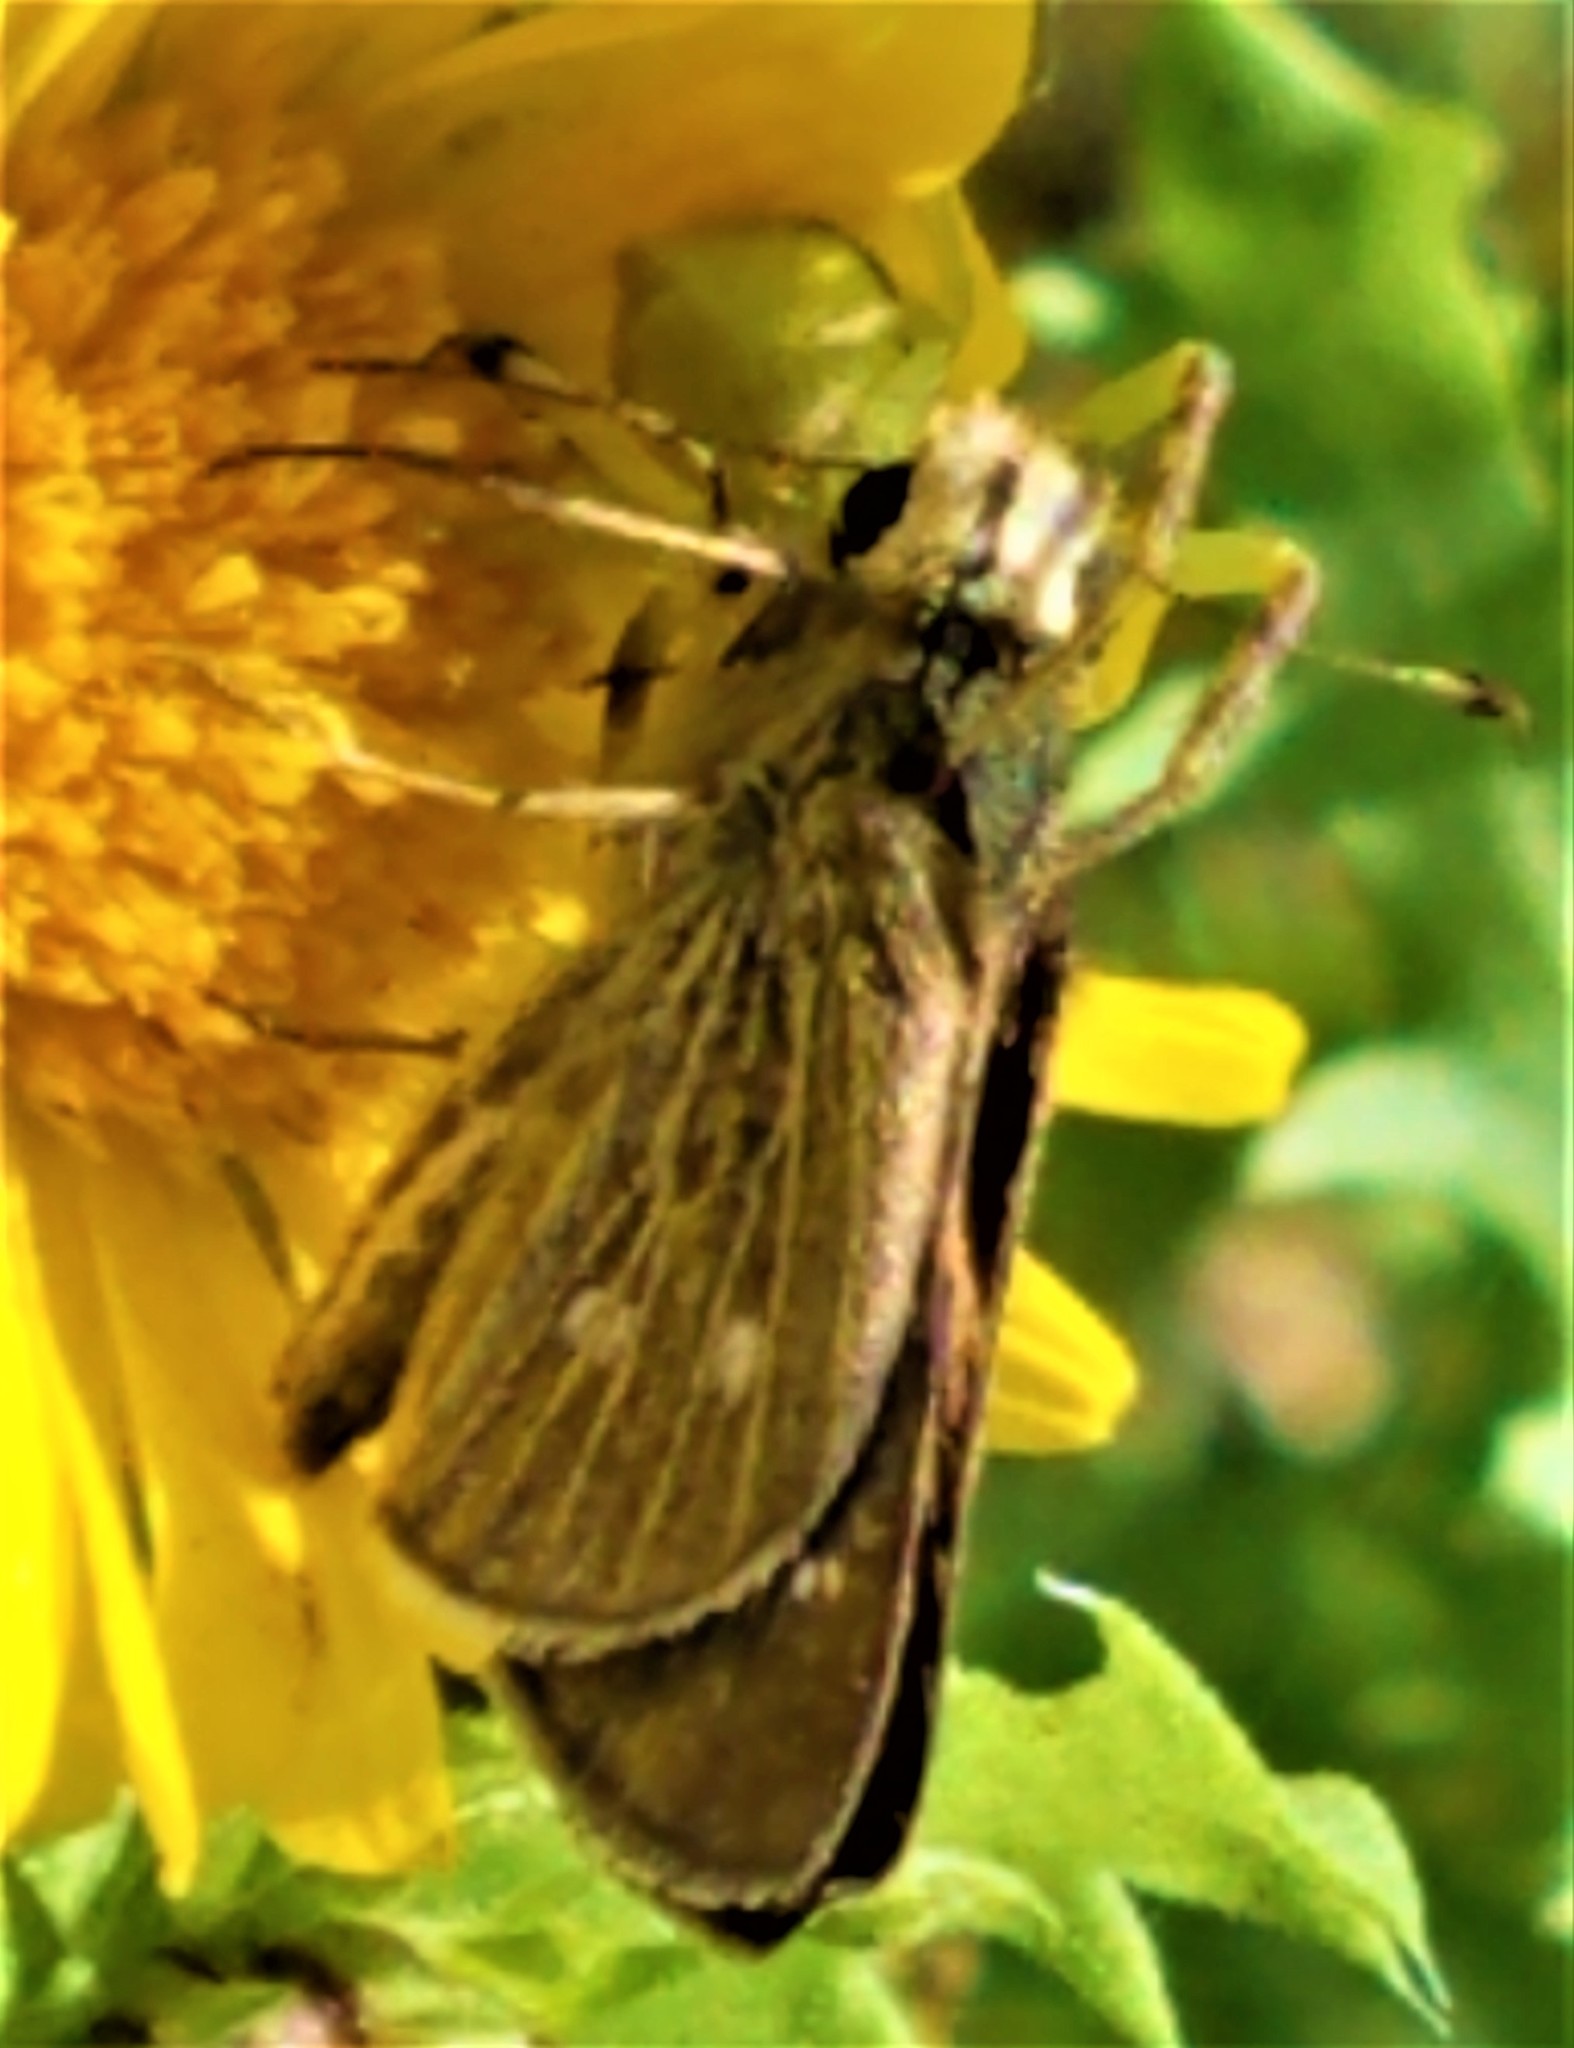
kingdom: Animalia
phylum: Arthropoda
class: Insecta
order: Lepidoptera
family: Hesperiidae
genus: Panoquina
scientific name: Panoquina panoquinoides
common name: Beach skipper
